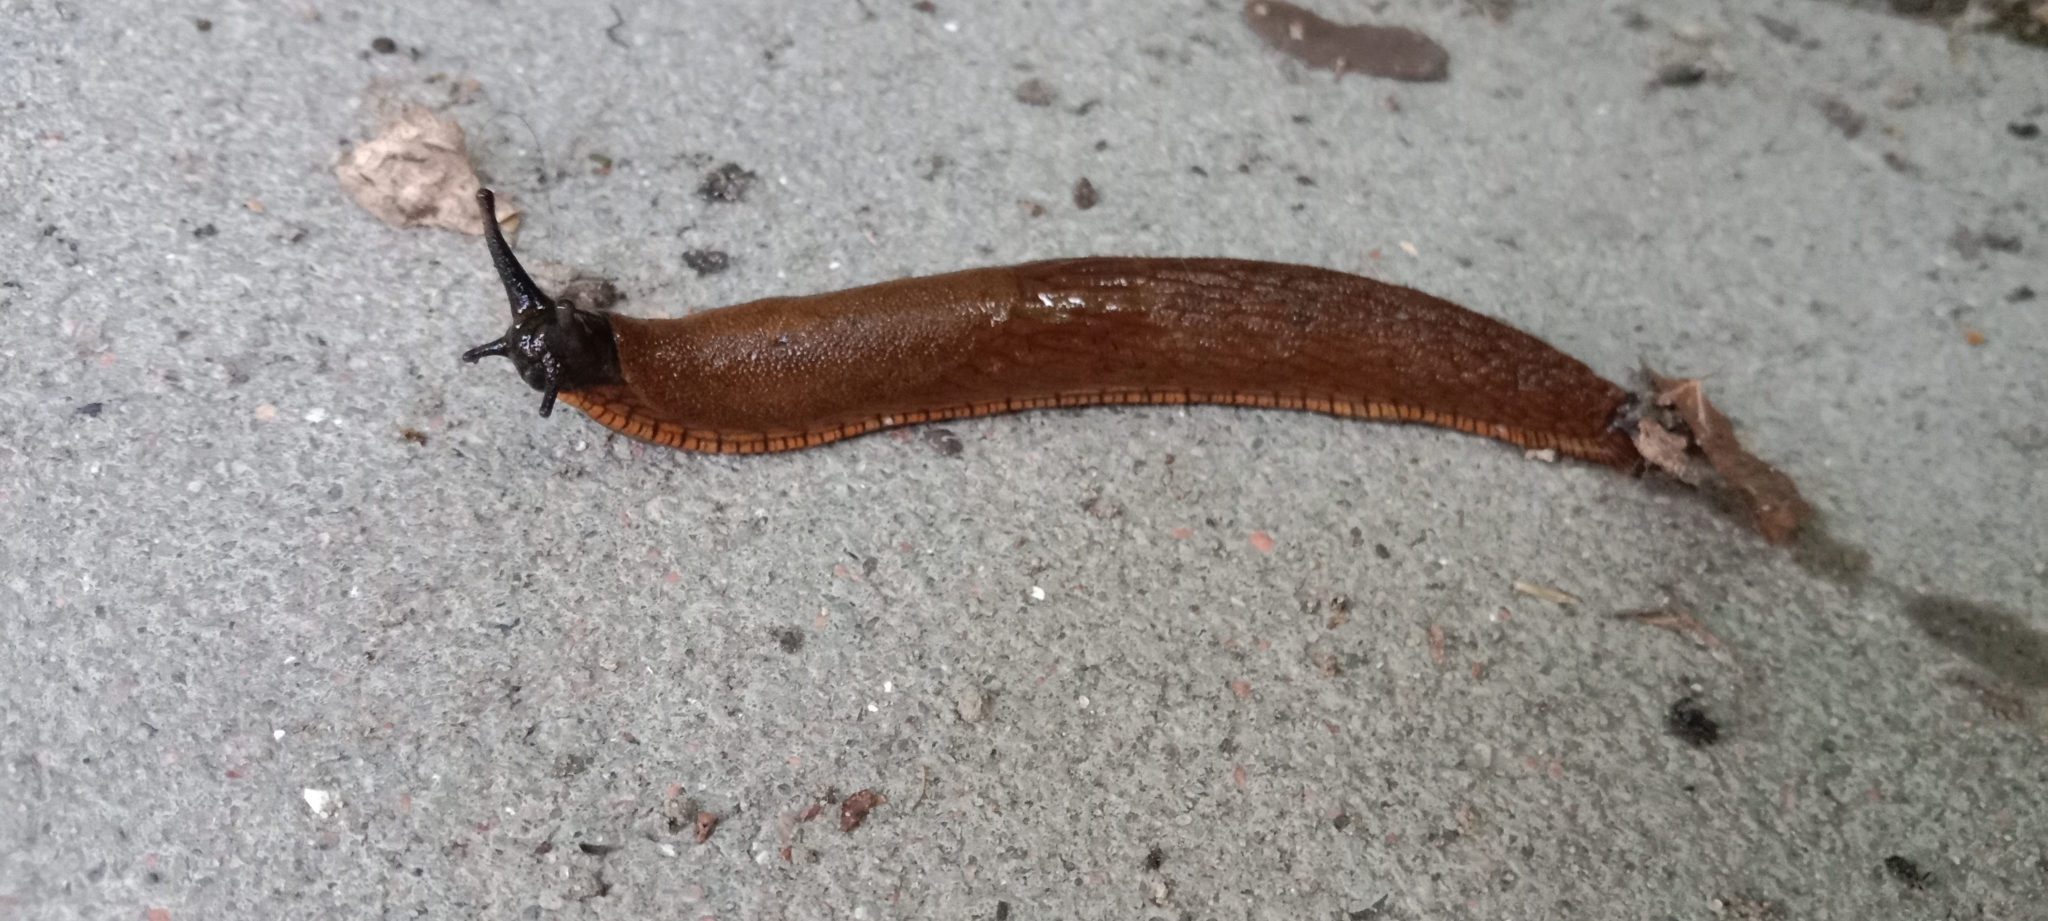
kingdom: Animalia
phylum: Mollusca
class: Gastropoda
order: Stylommatophora
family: Arionidae
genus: Arion
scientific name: Arion vulgaris
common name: Lusitanian slug
